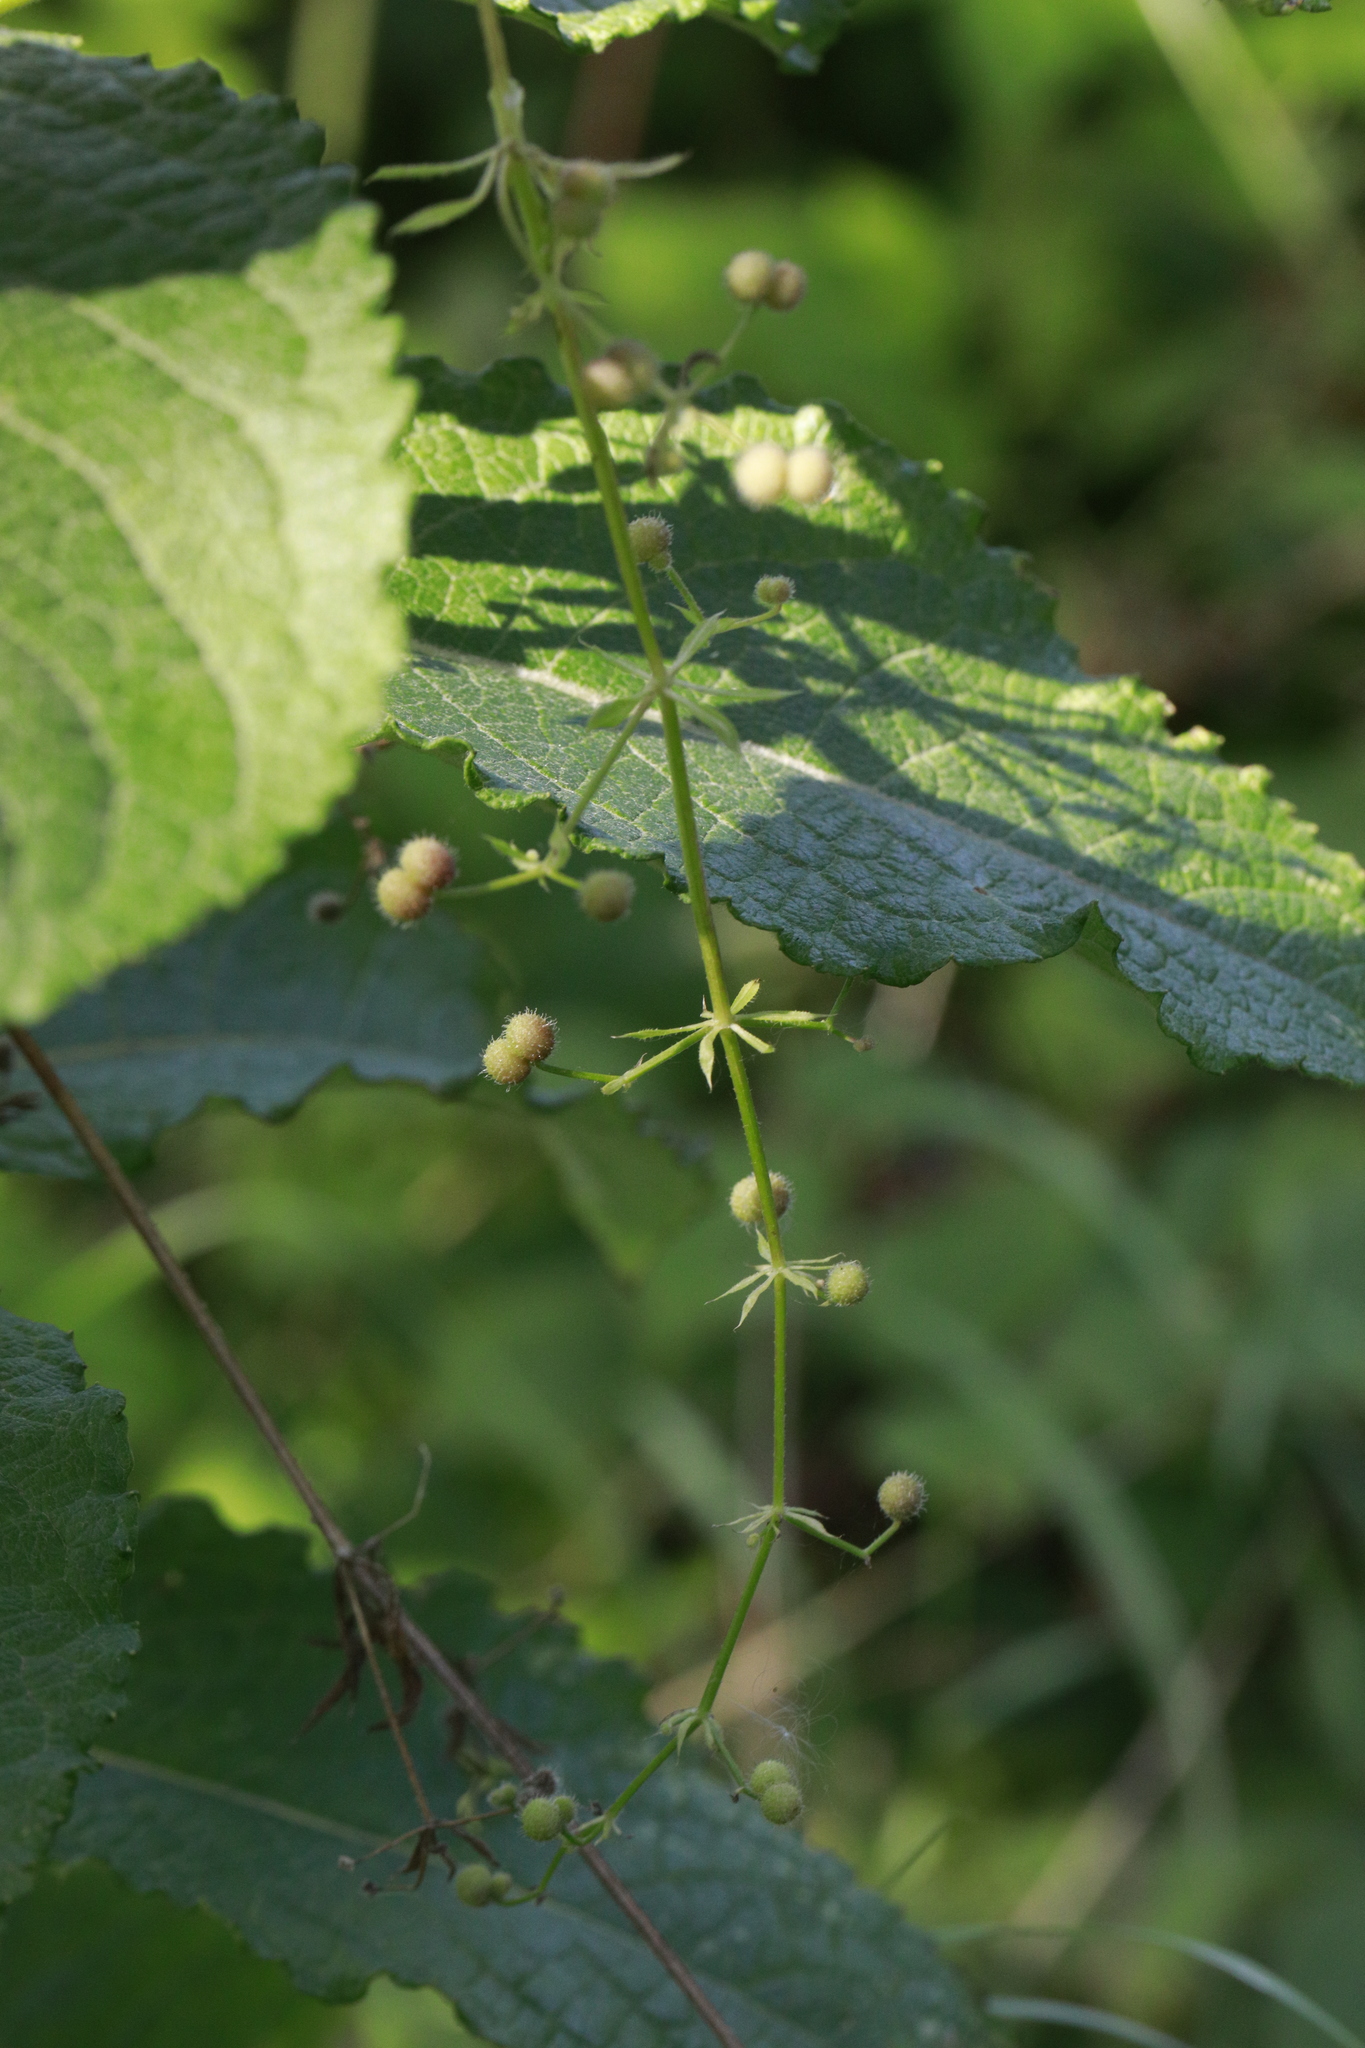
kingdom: Plantae
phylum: Tracheophyta
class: Magnoliopsida
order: Gentianales
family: Rubiaceae
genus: Galium
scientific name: Galium aparine
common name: Cleavers
